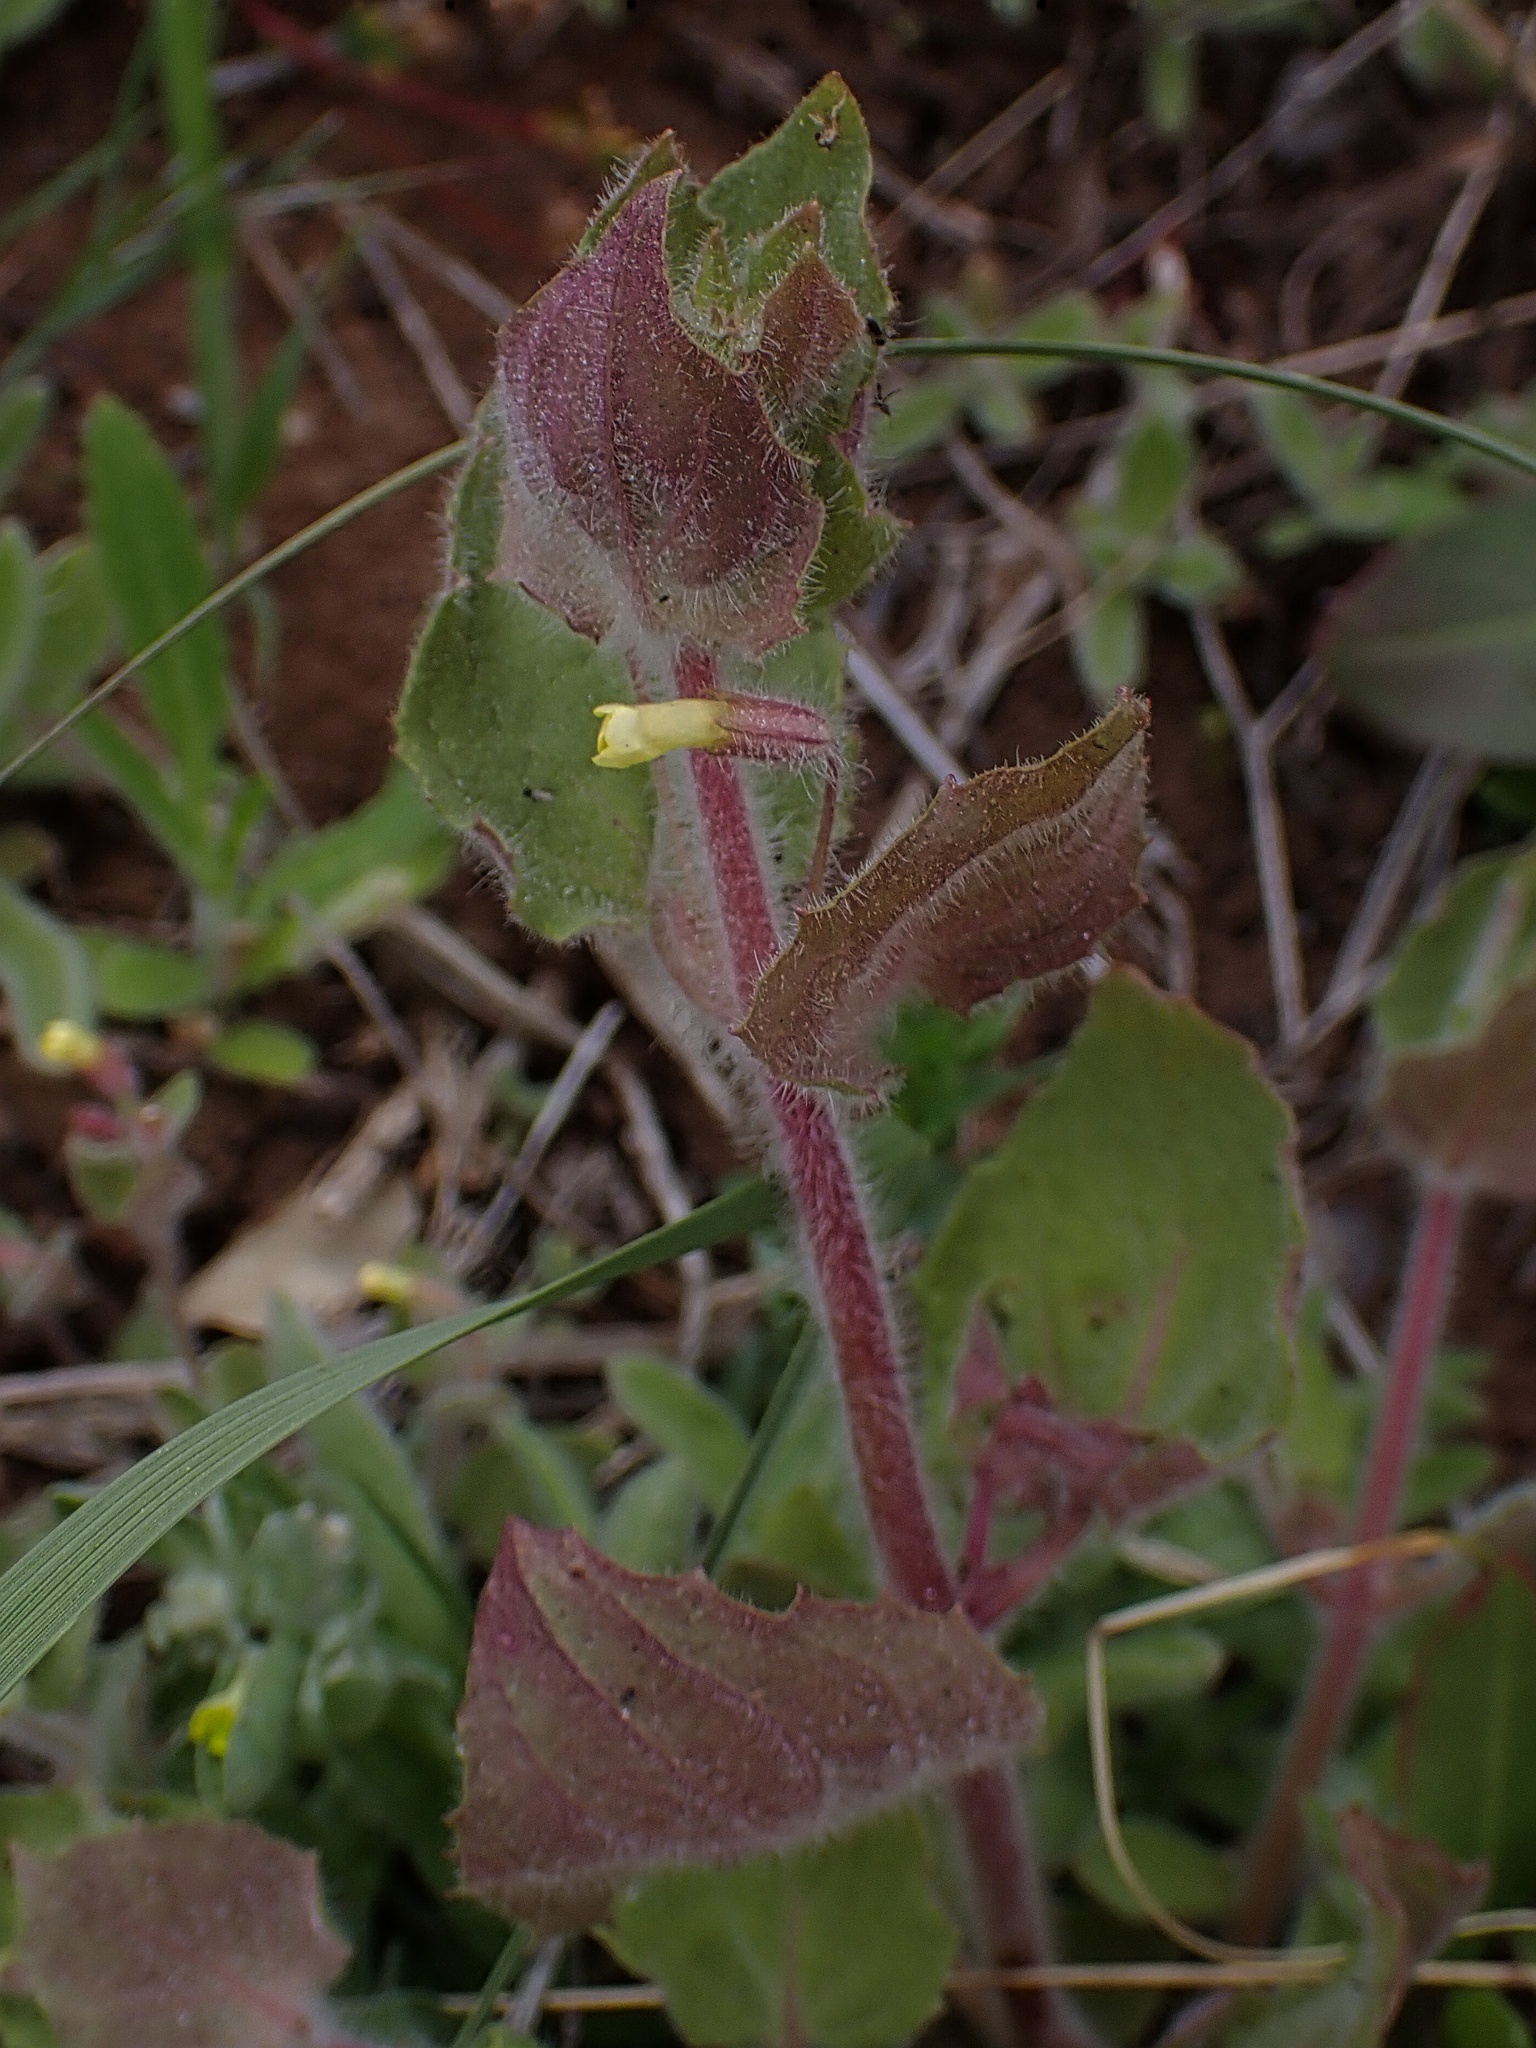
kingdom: Plantae
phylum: Tracheophyta
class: Magnoliopsida
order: Lamiales
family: Phrymaceae
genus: Erythranthe
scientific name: Erythranthe floribunda
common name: Floriferous monkeyflower
